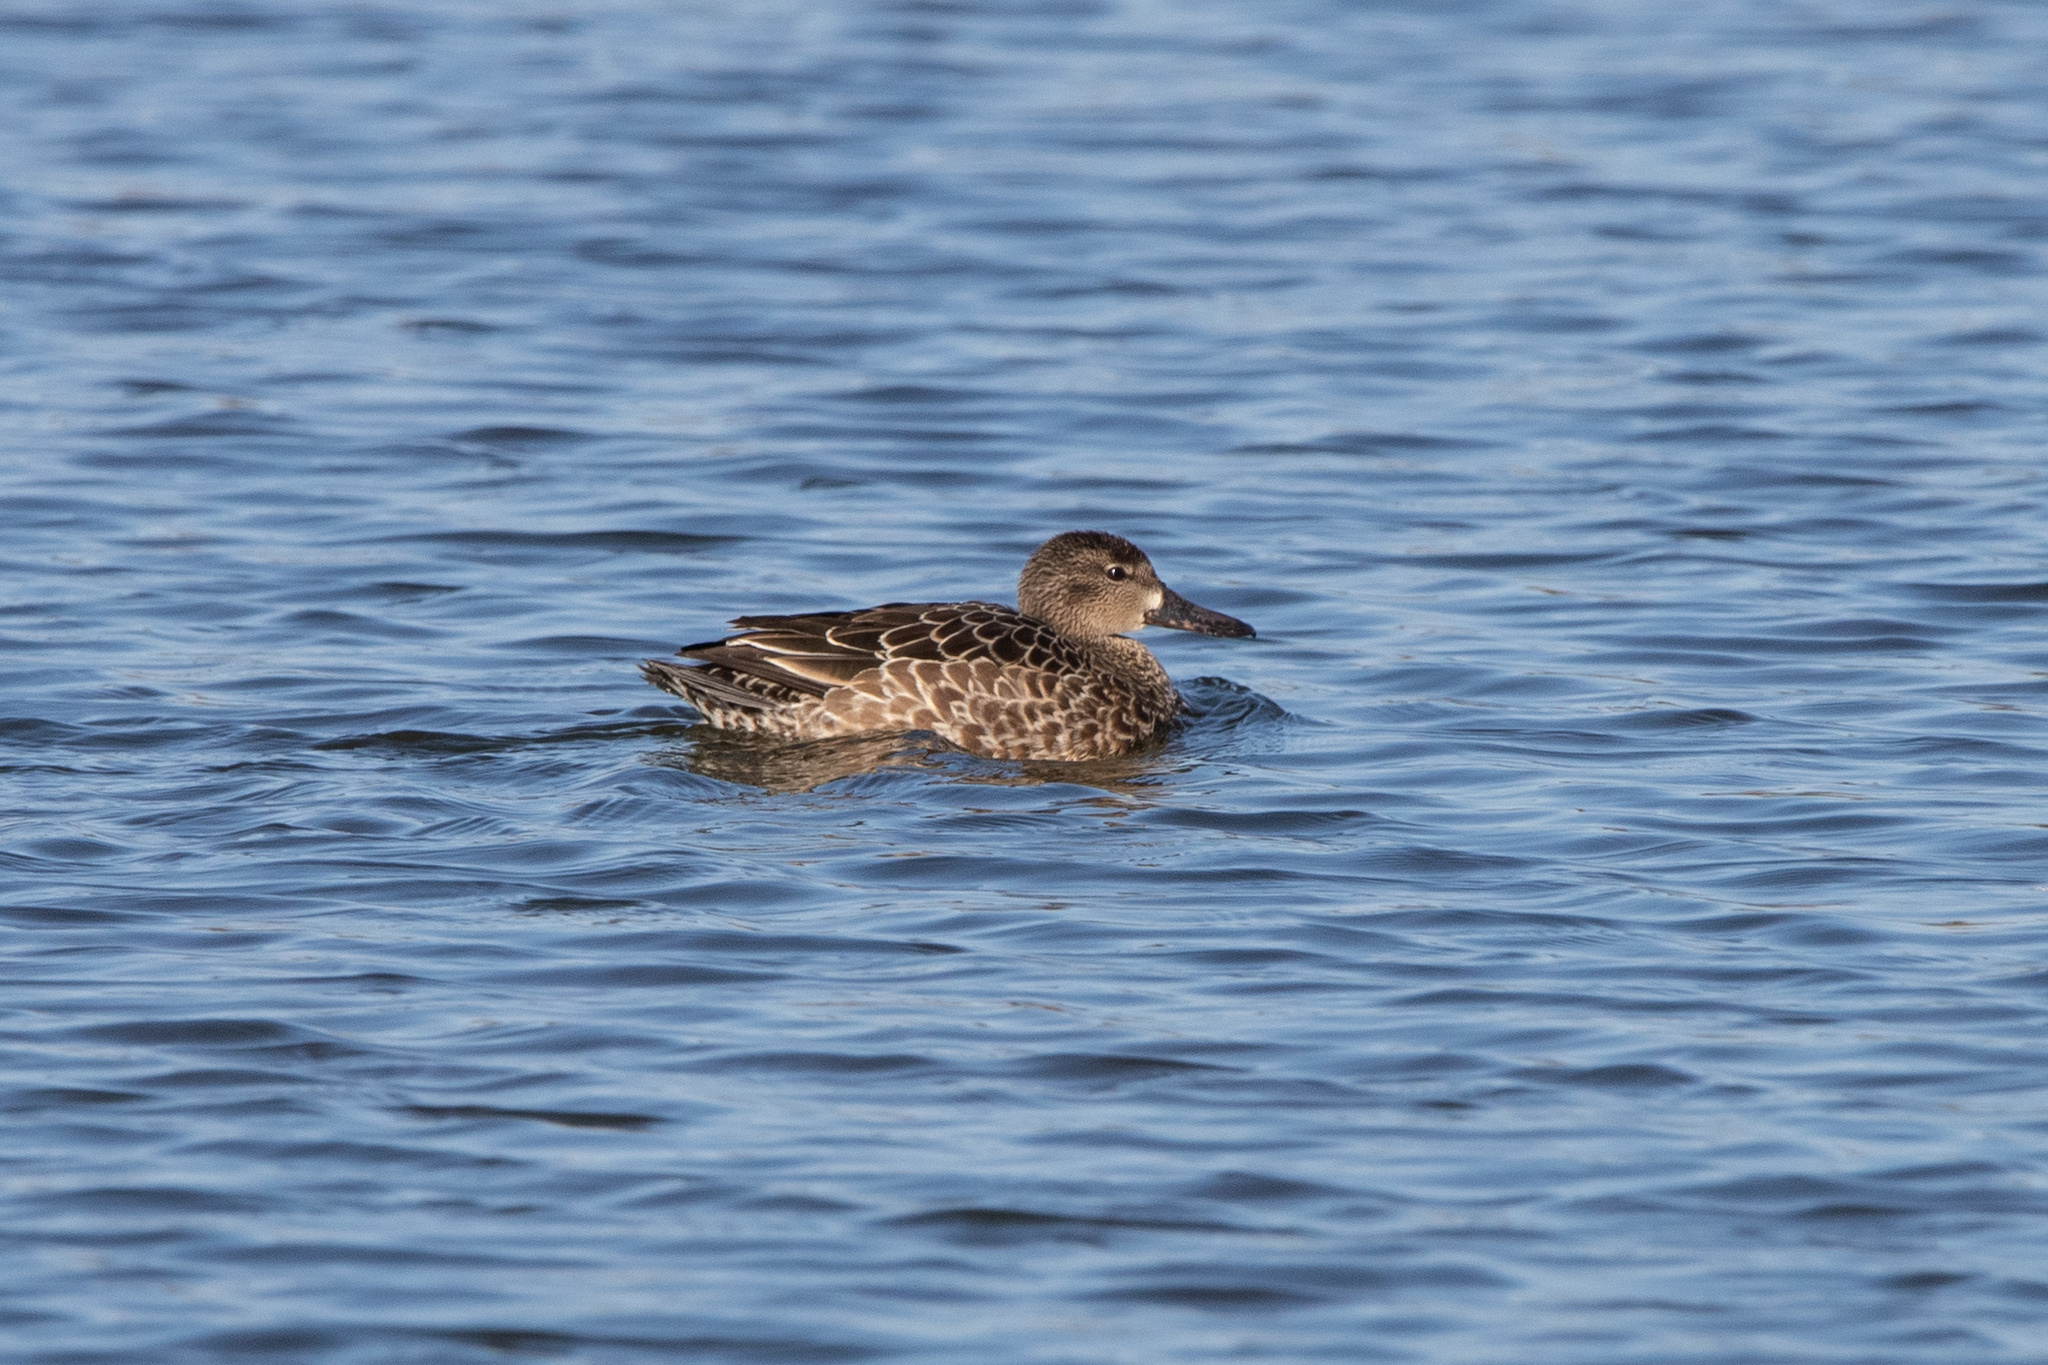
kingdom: Animalia
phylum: Chordata
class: Aves
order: Anseriformes
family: Anatidae
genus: Spatula
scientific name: Spatula discors
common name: Blue-winged teal
